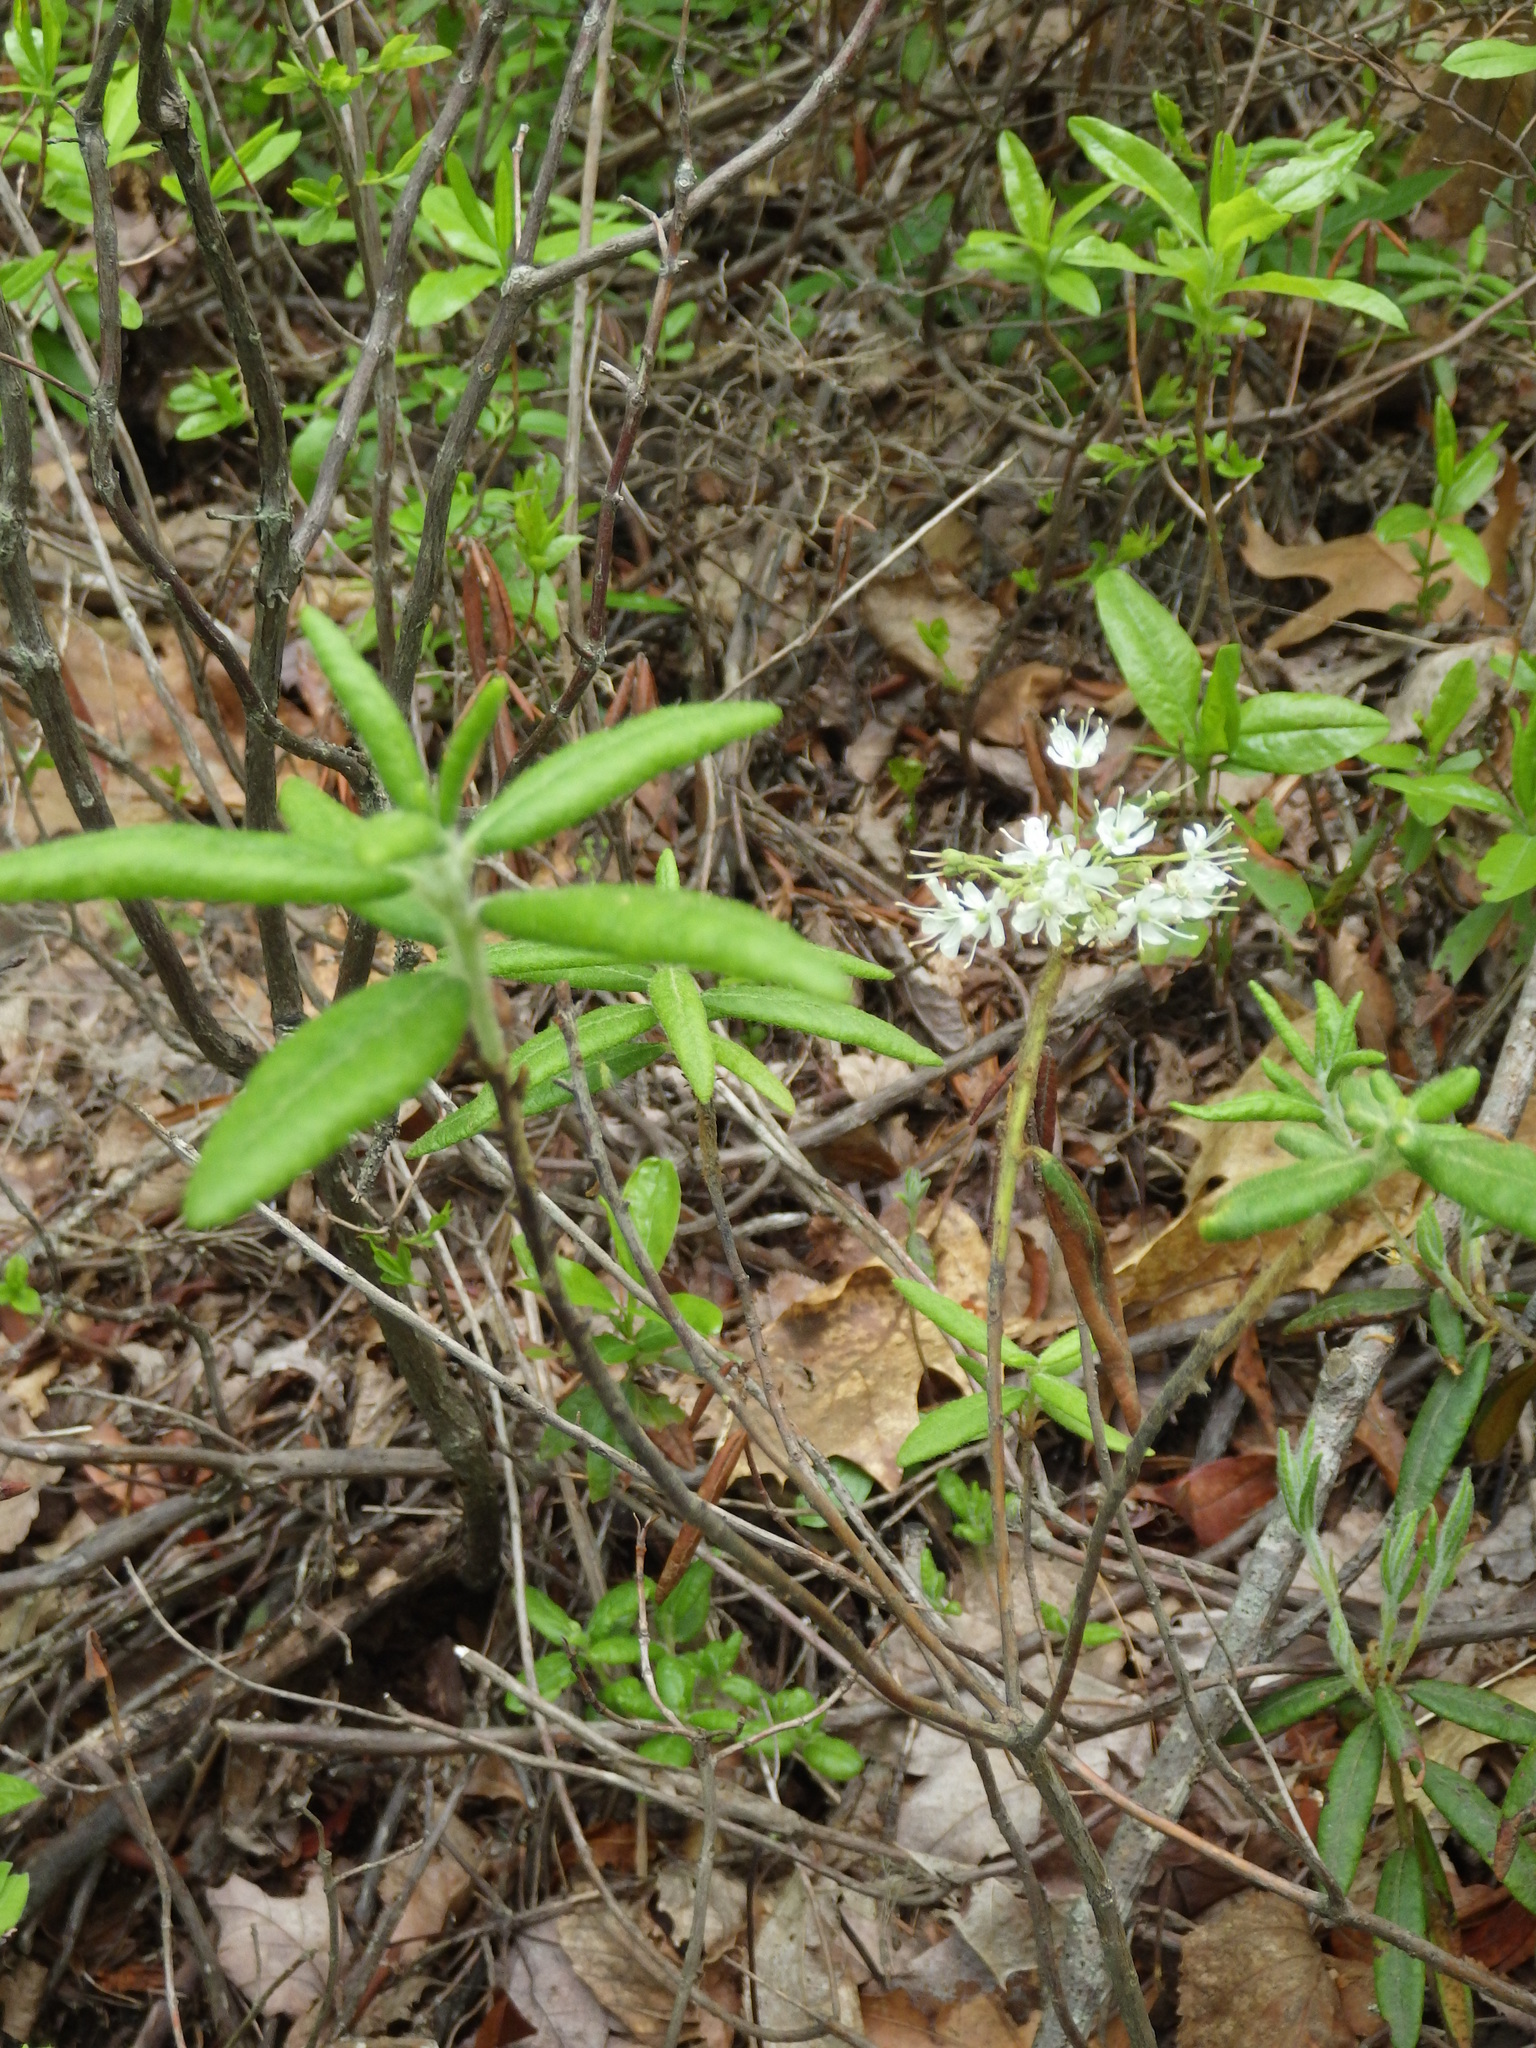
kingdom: Plantae
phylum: Tracheophyta
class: Magnoliopsida
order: Ericales
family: Ericaceae
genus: Rhododendron
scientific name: Rhododendron groenlandicum
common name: Bog labrador tea
